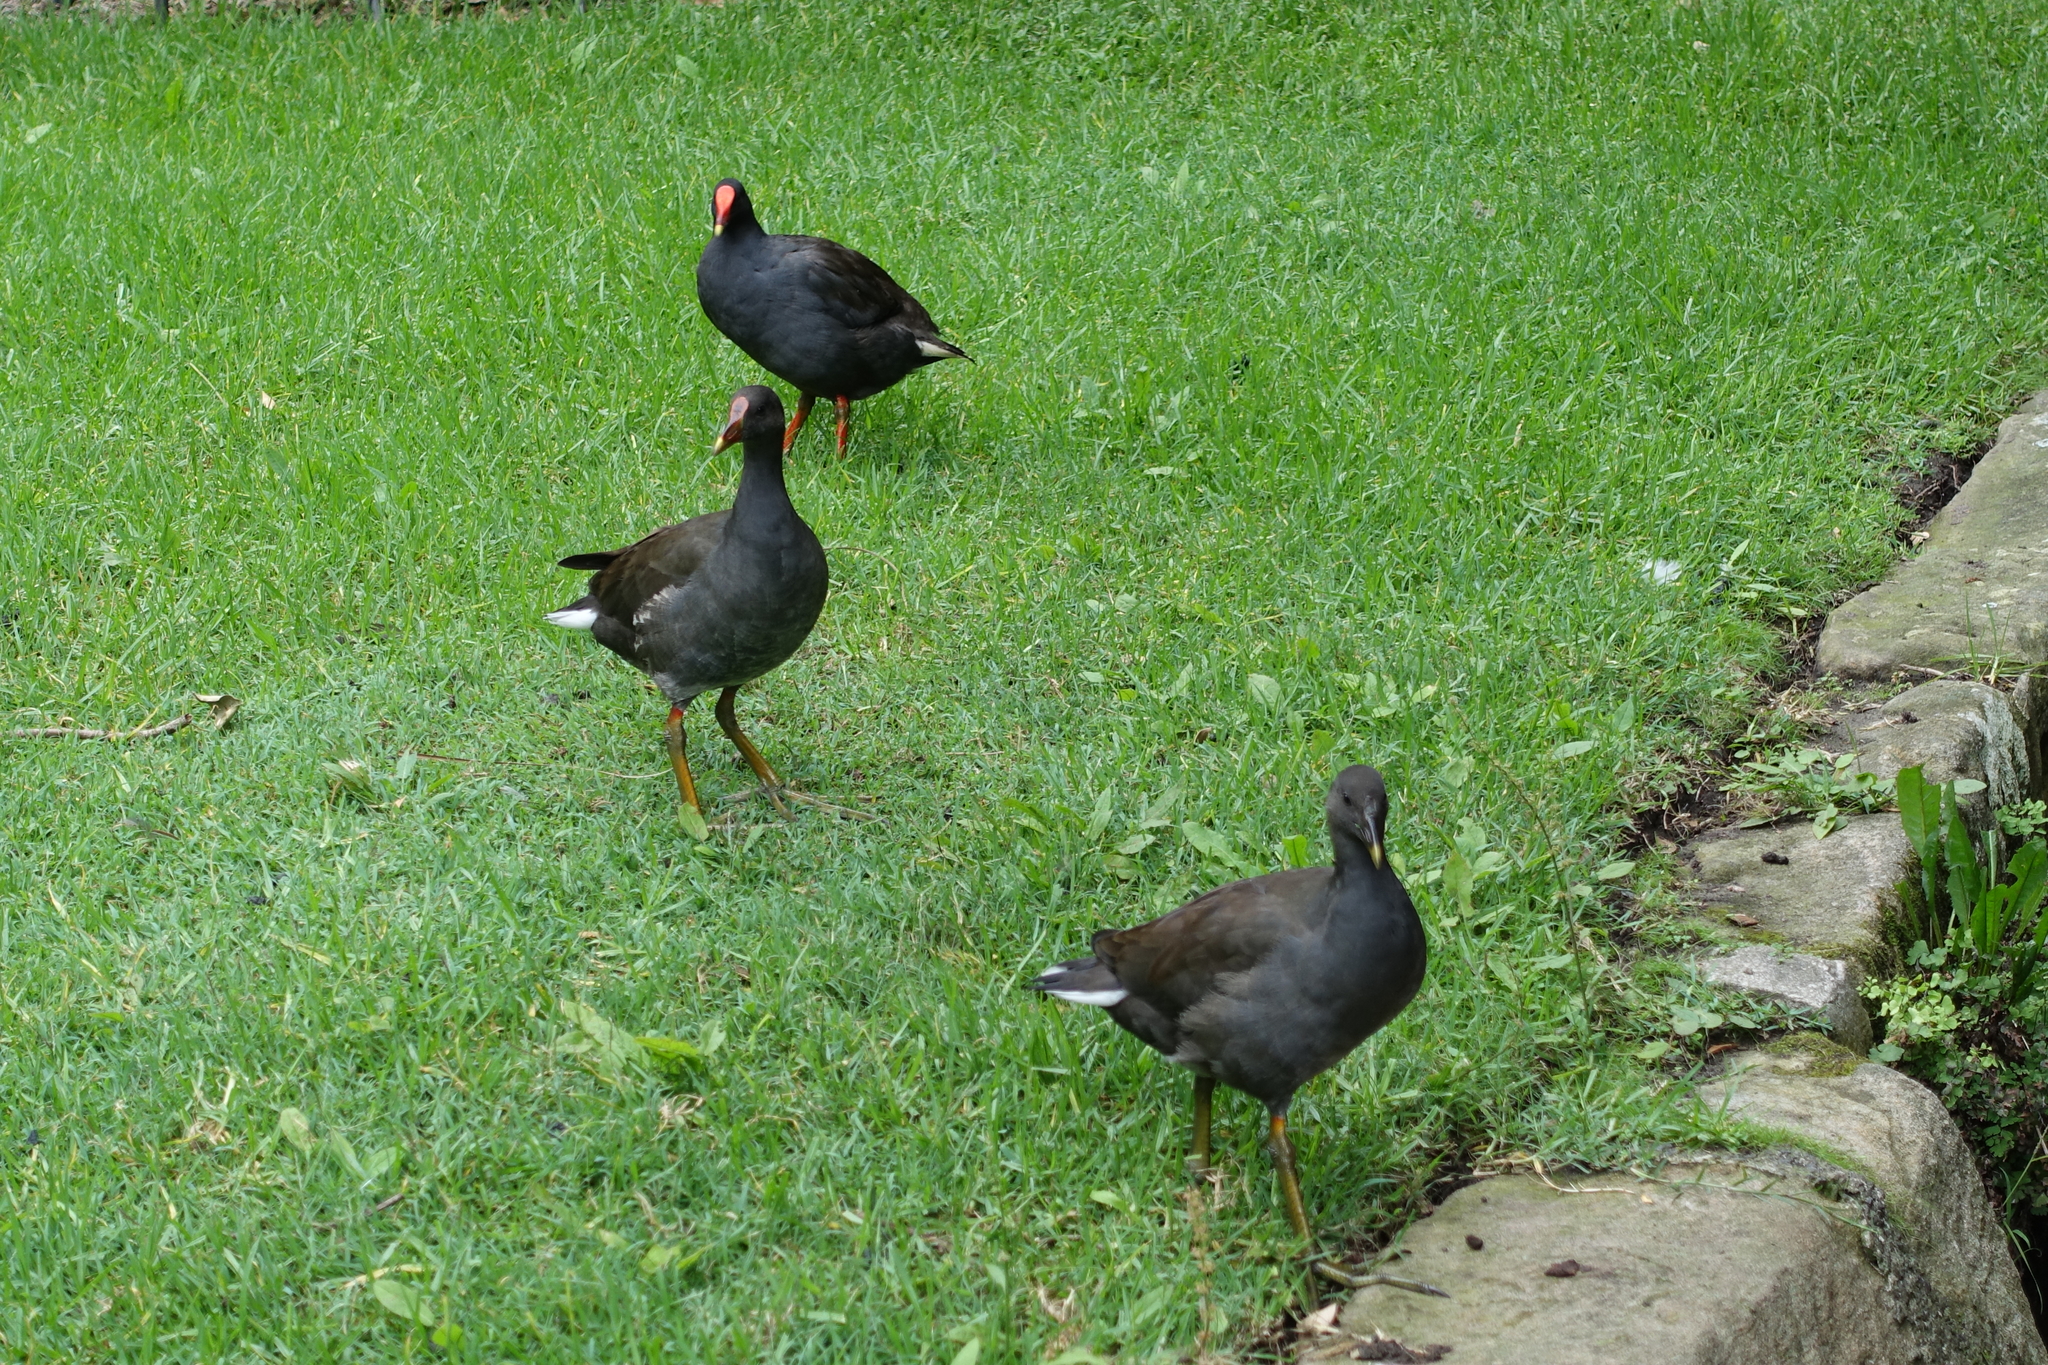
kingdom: Animalia
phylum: Chordata
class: Aves
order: Gruiformes
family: Rallidae
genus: Gallinula
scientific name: Gallinula tenebrosa
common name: Dusky moorhen
